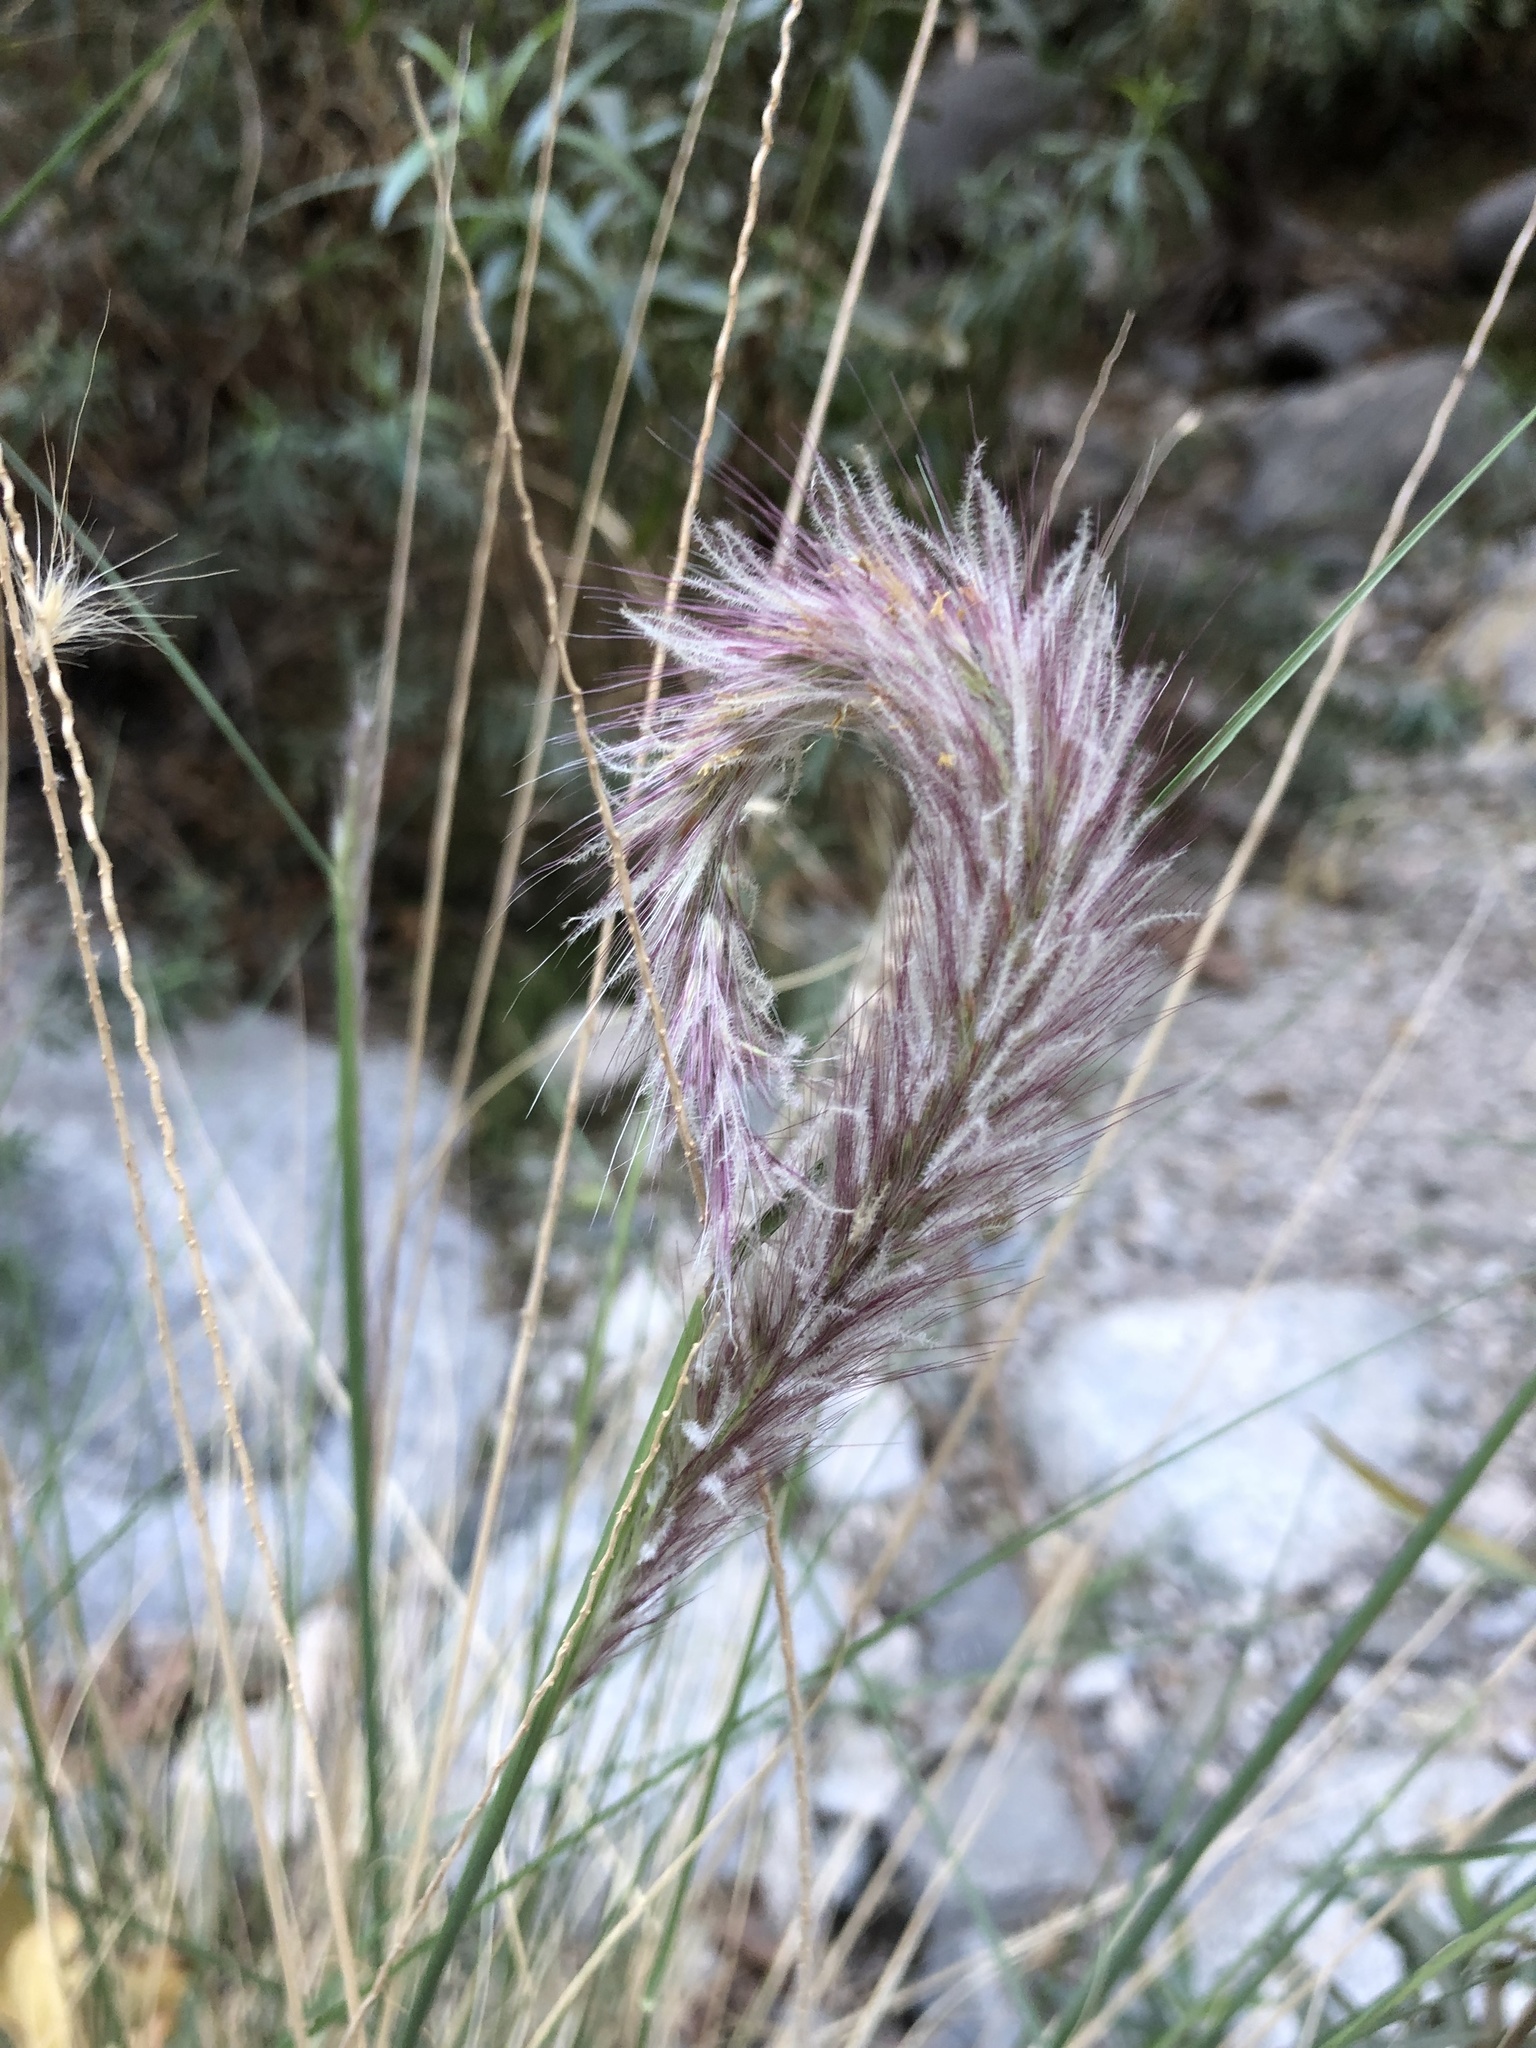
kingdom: Plantae
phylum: Tracheophyta
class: Liliopsida
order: Poales
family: Poaceae
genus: Cenchrus
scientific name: Cenchrus setaceus
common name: Crimson fountaingrass
